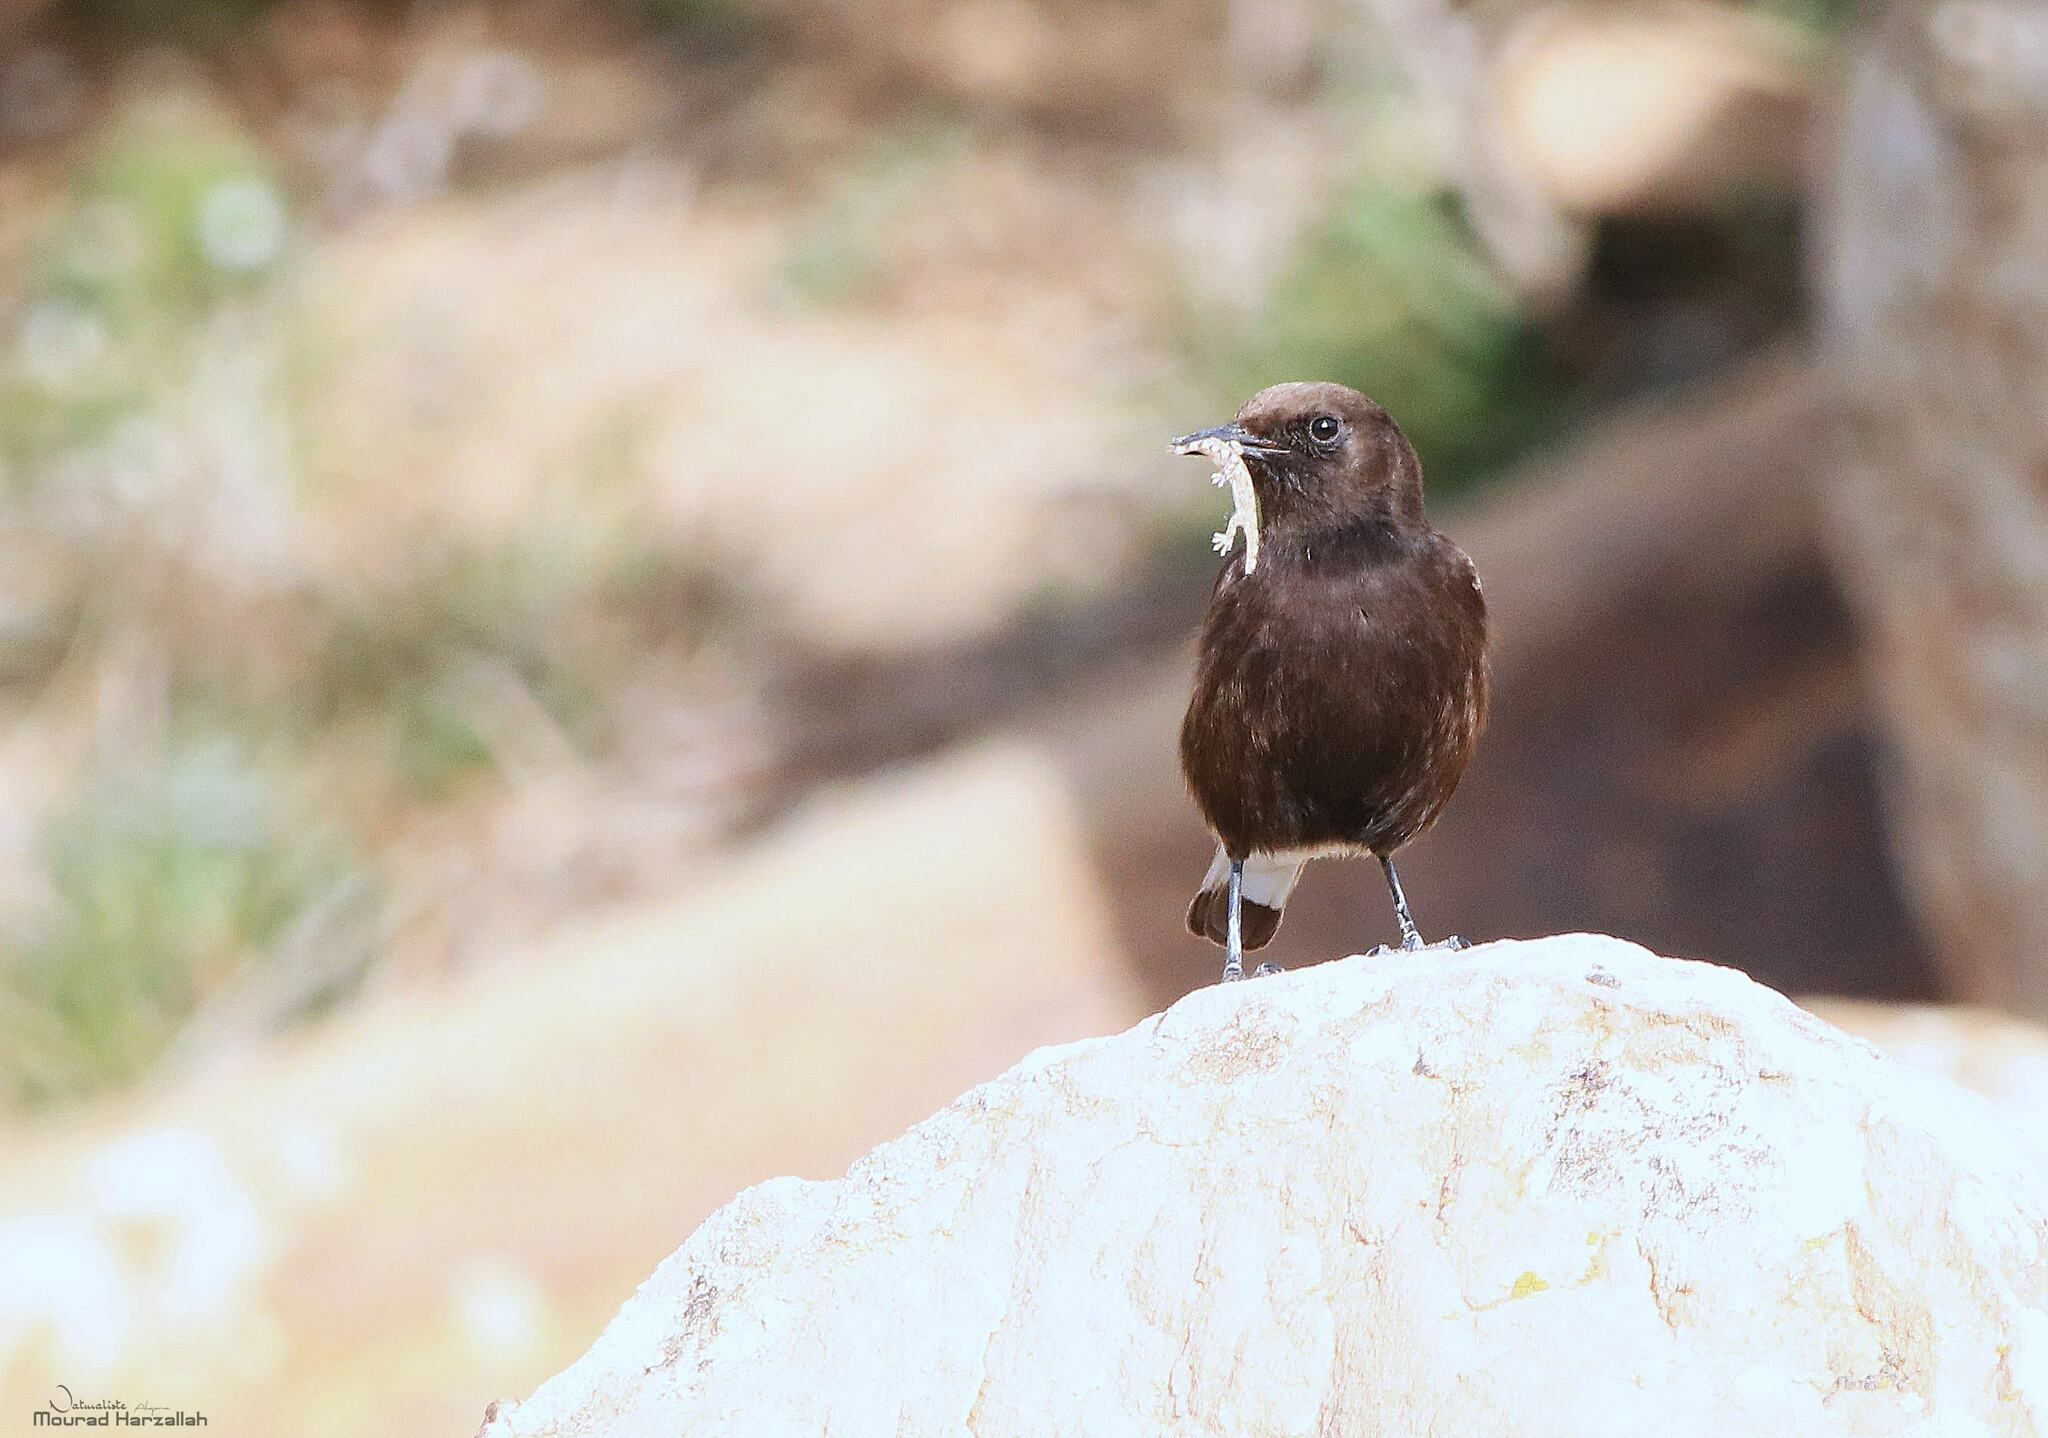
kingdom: Animalia
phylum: Chordata
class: Aves
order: Passeriformes
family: Muscicapidae
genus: Oenanthe
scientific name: Oenanthe leucura
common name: Black wheatear
